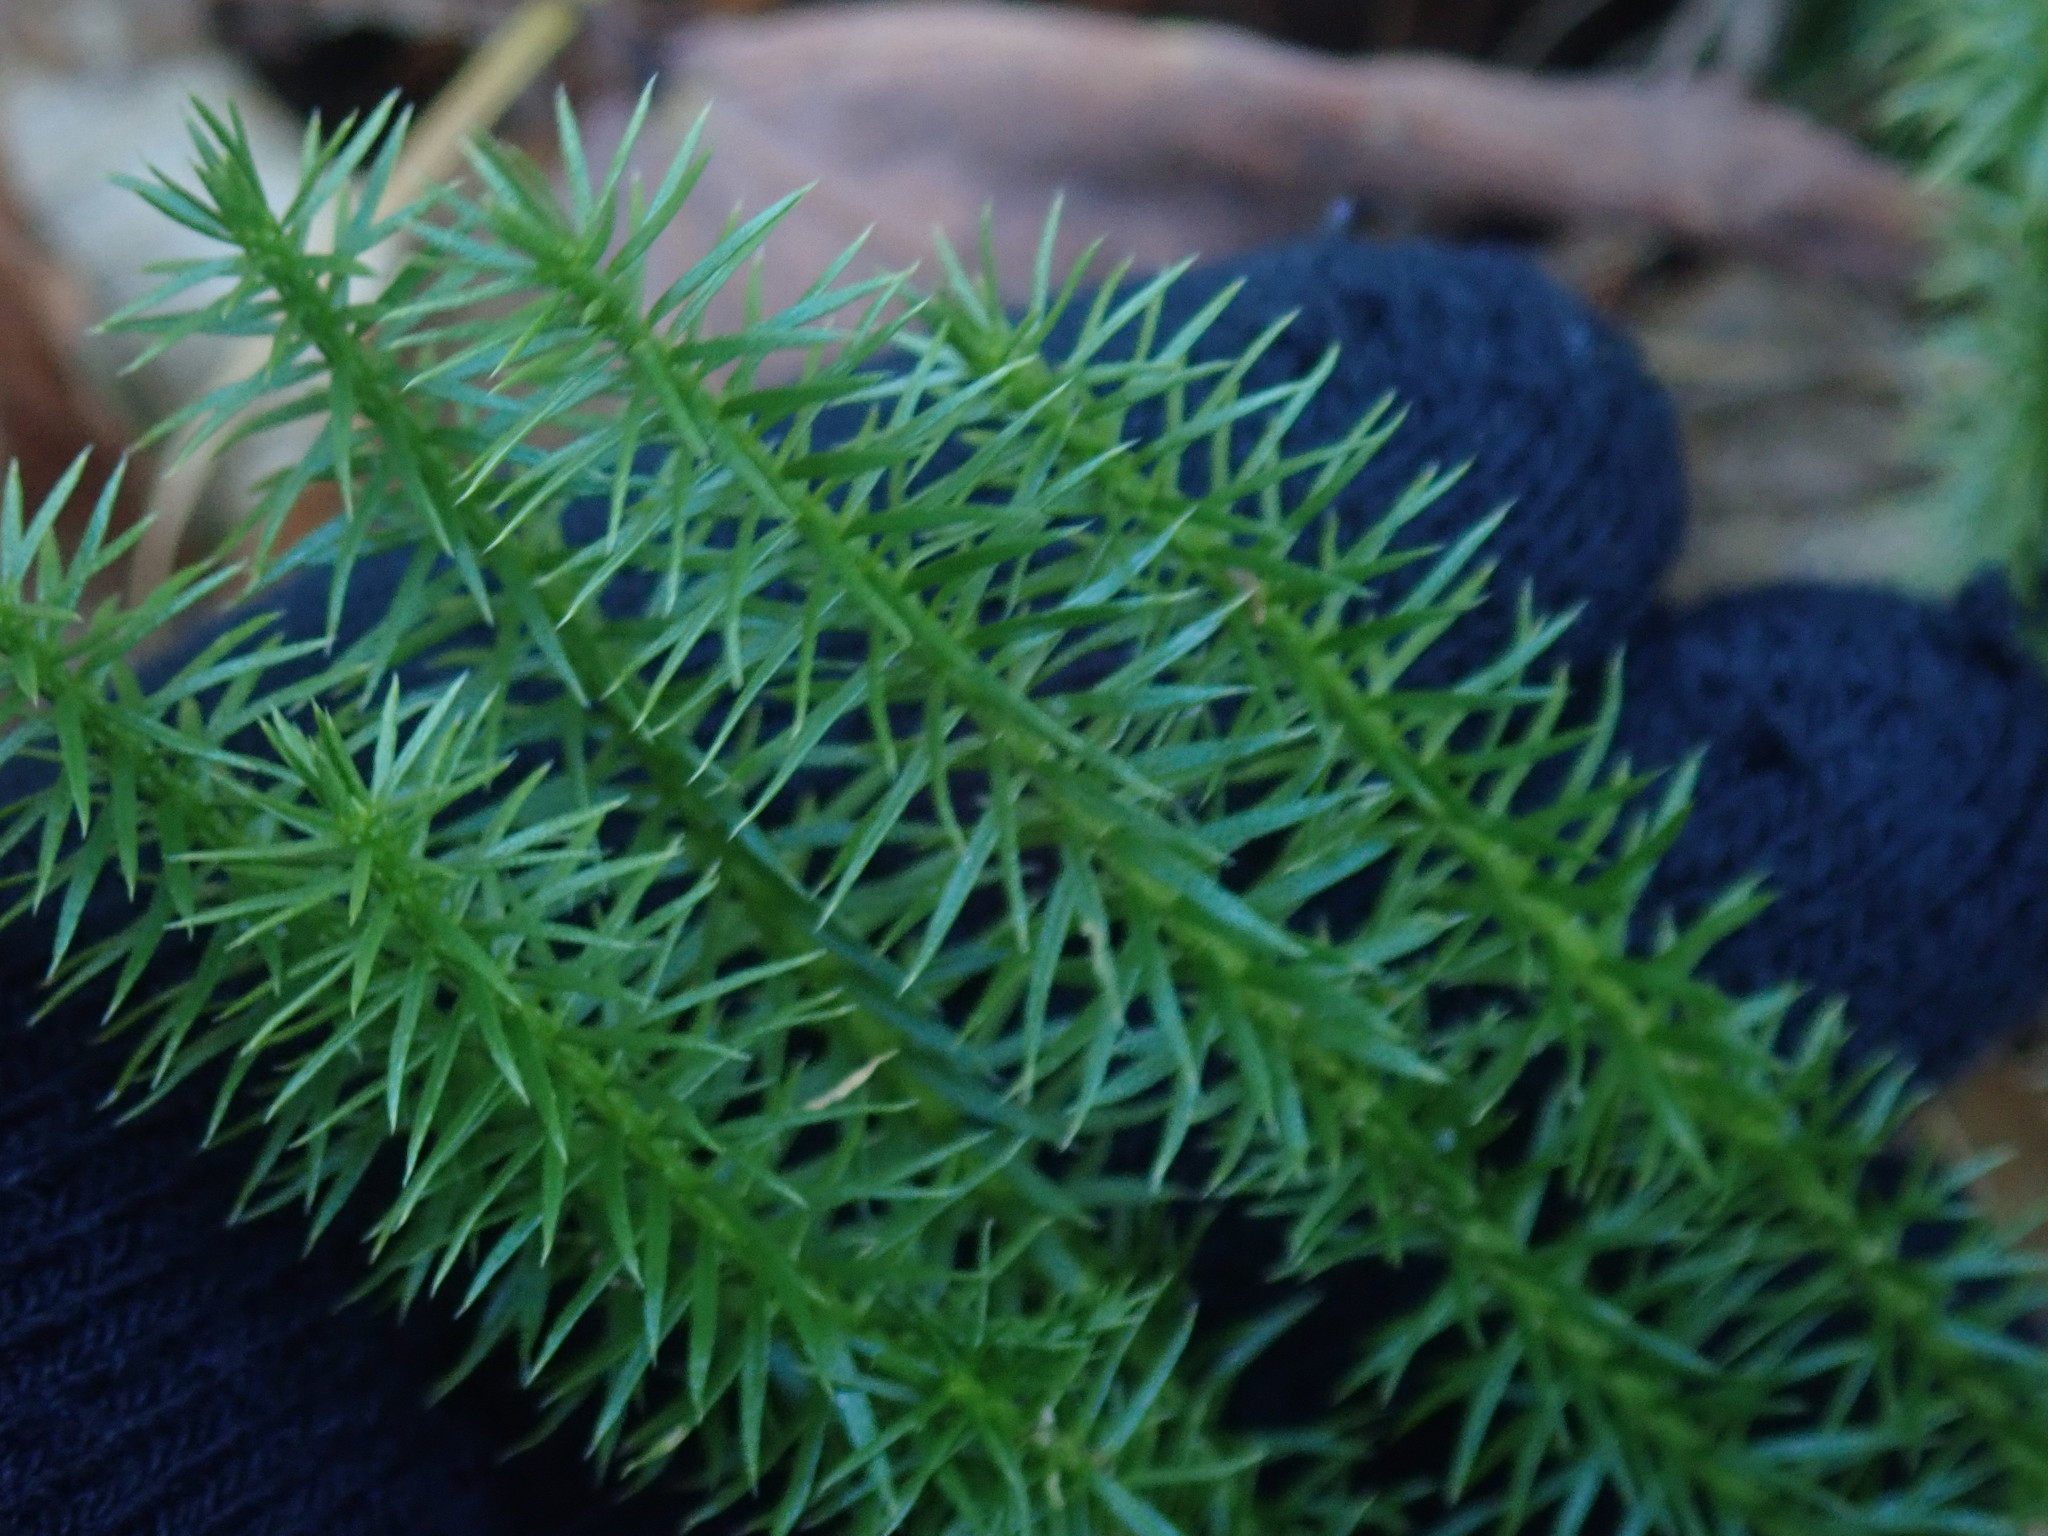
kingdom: Plantae
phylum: Tracheophyta
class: Lycopodiopsida
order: Lycopodiales
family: Lycopodiaceae
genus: Spinulum
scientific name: Spinulum annotinum
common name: Interrupted club-moss
